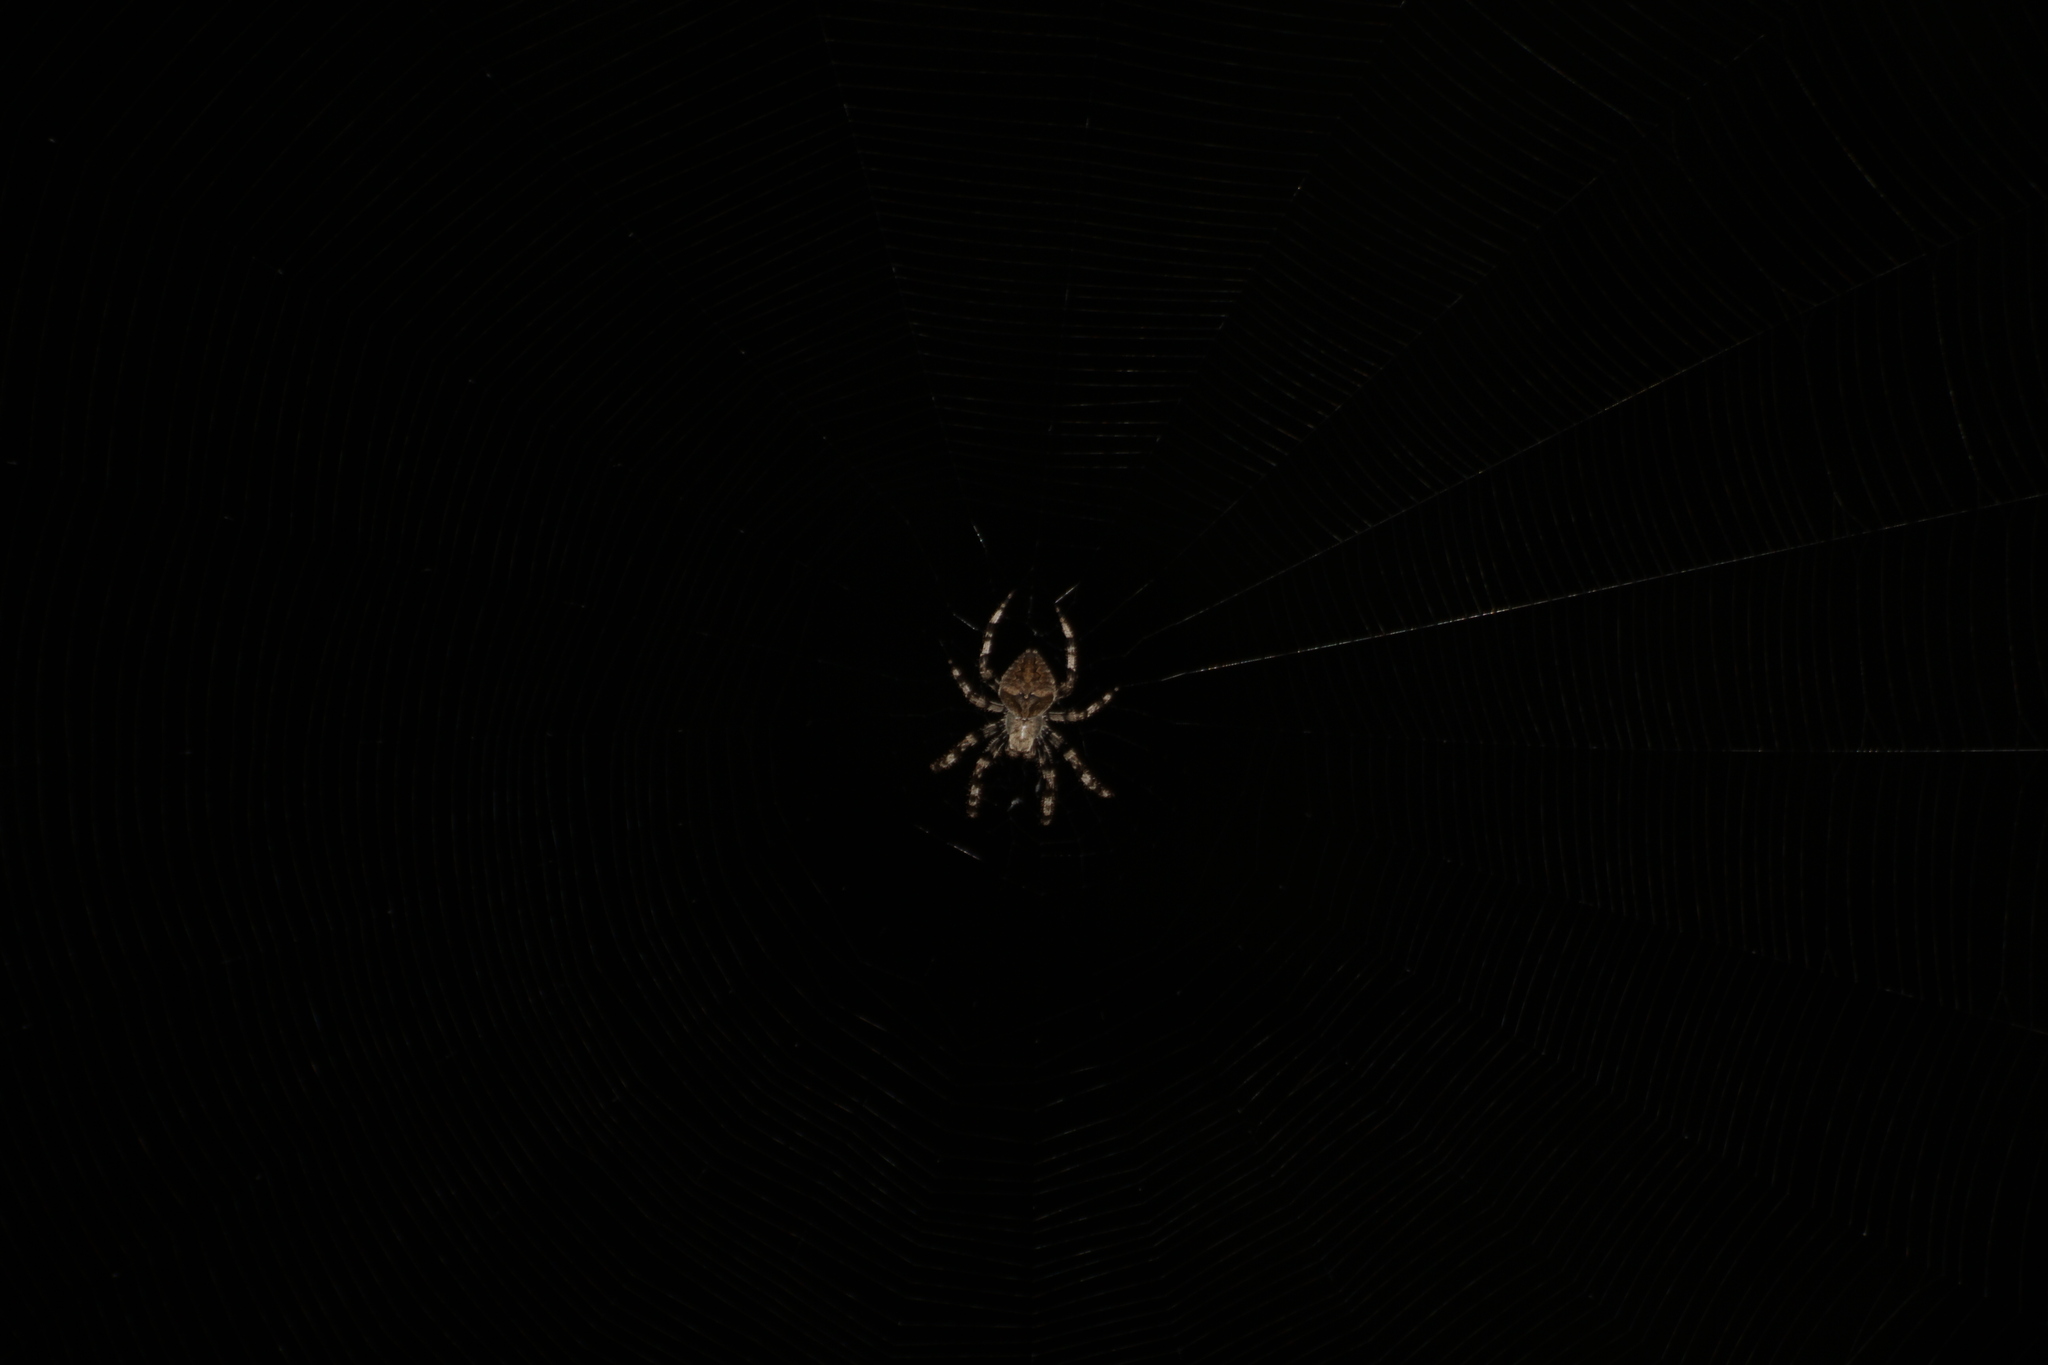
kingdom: Animalia
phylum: Arthropoda
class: Arachnida
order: Araneae
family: Araneidae
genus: Araneus
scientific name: Araneus angulatus
